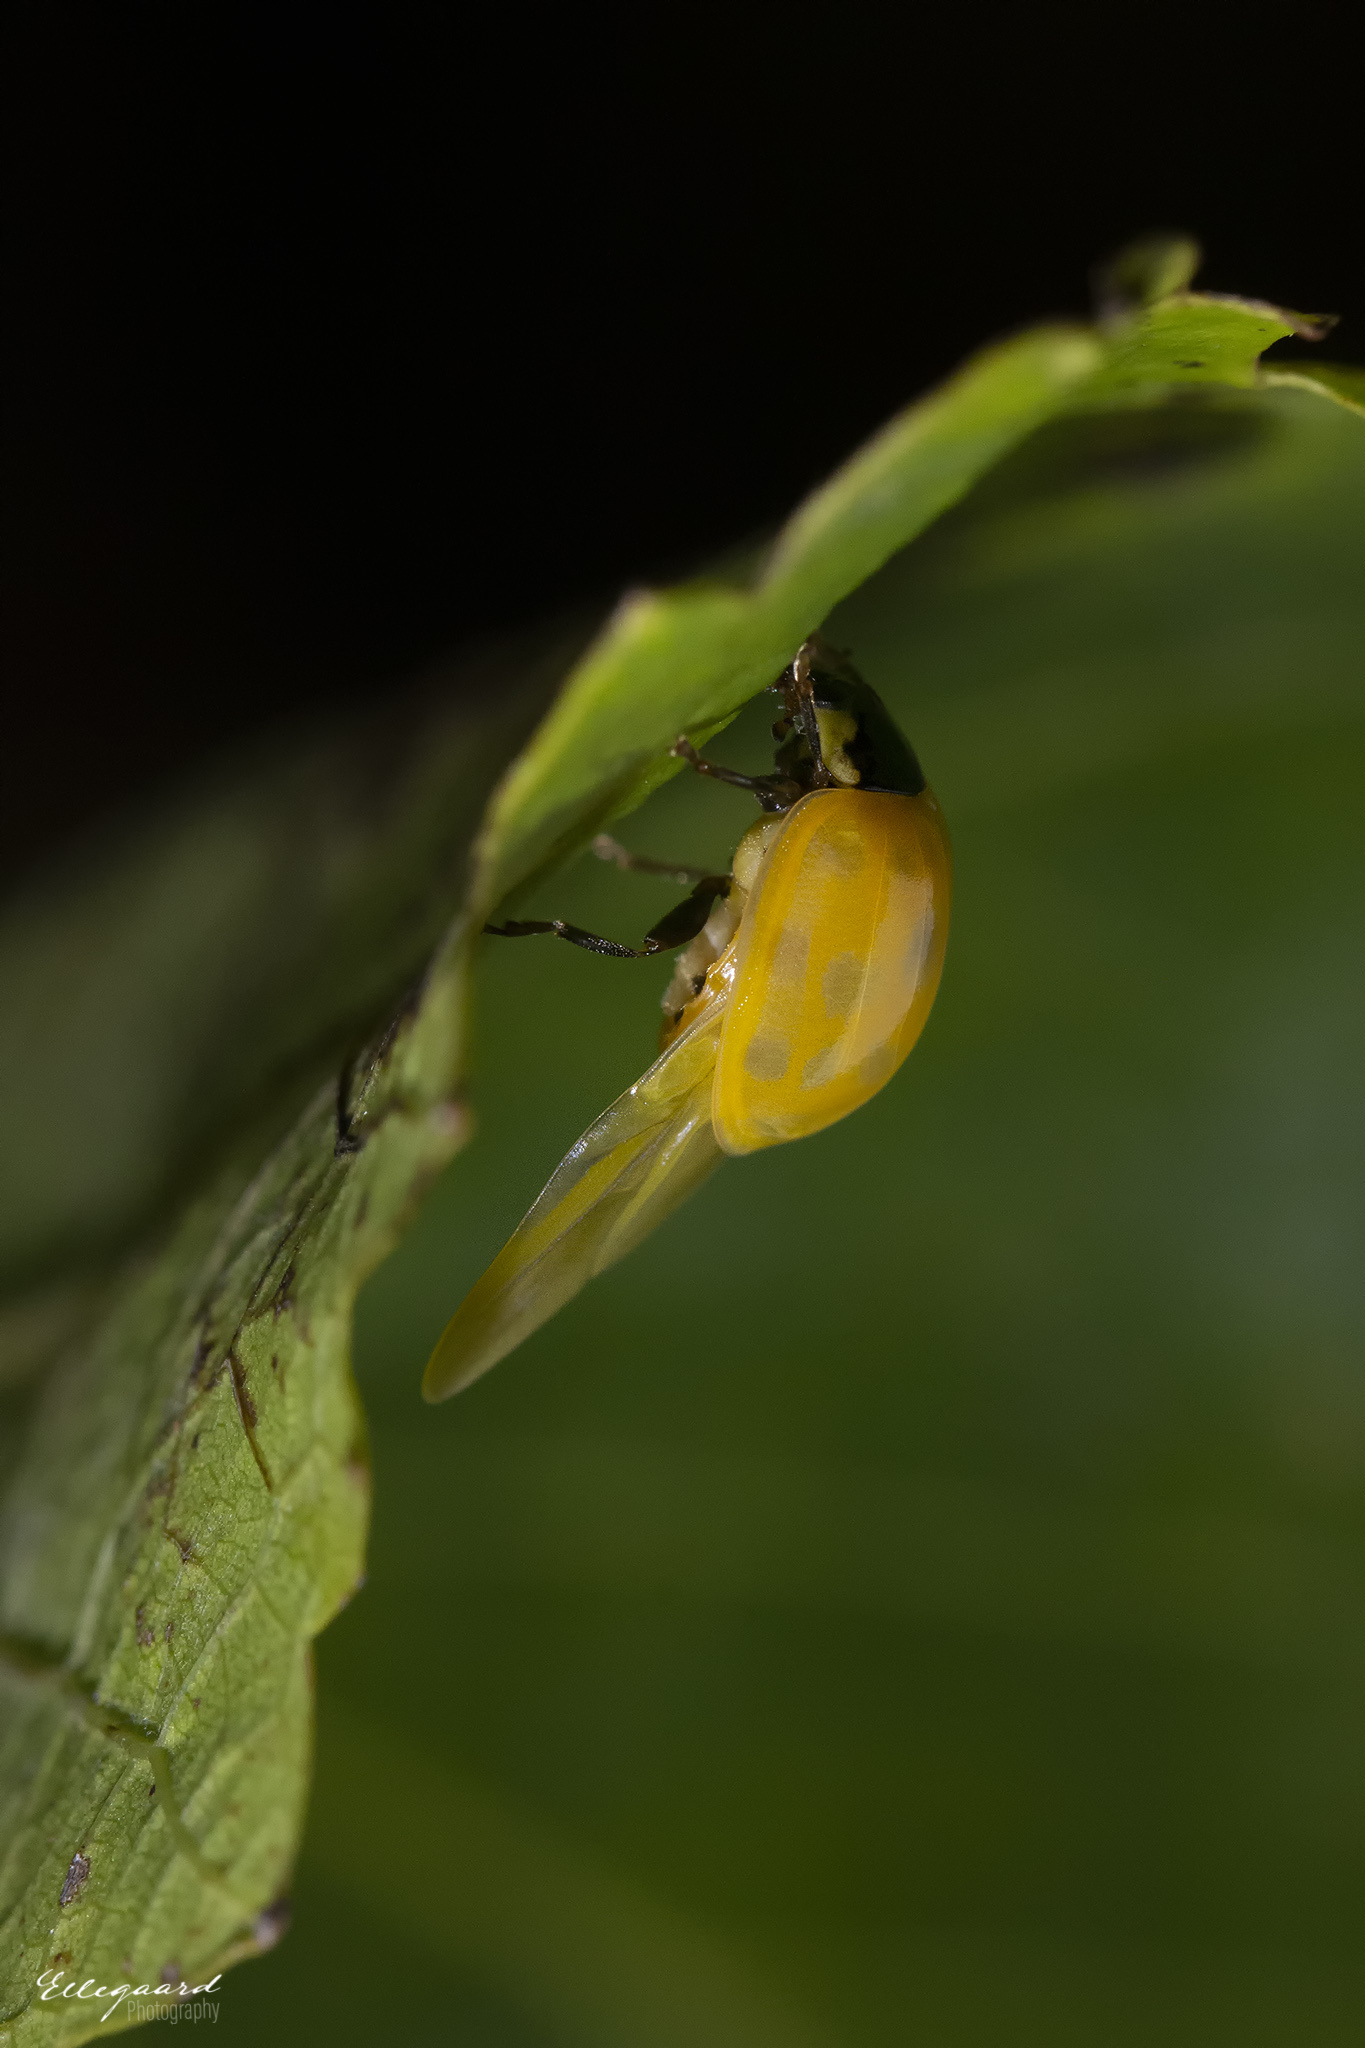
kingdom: Animalia
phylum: Arthropoda
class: Insecta
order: Coleoptera
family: Coccinellidae
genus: Harmonia
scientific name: Harmonia axyridis
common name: Harlequin ladybird
